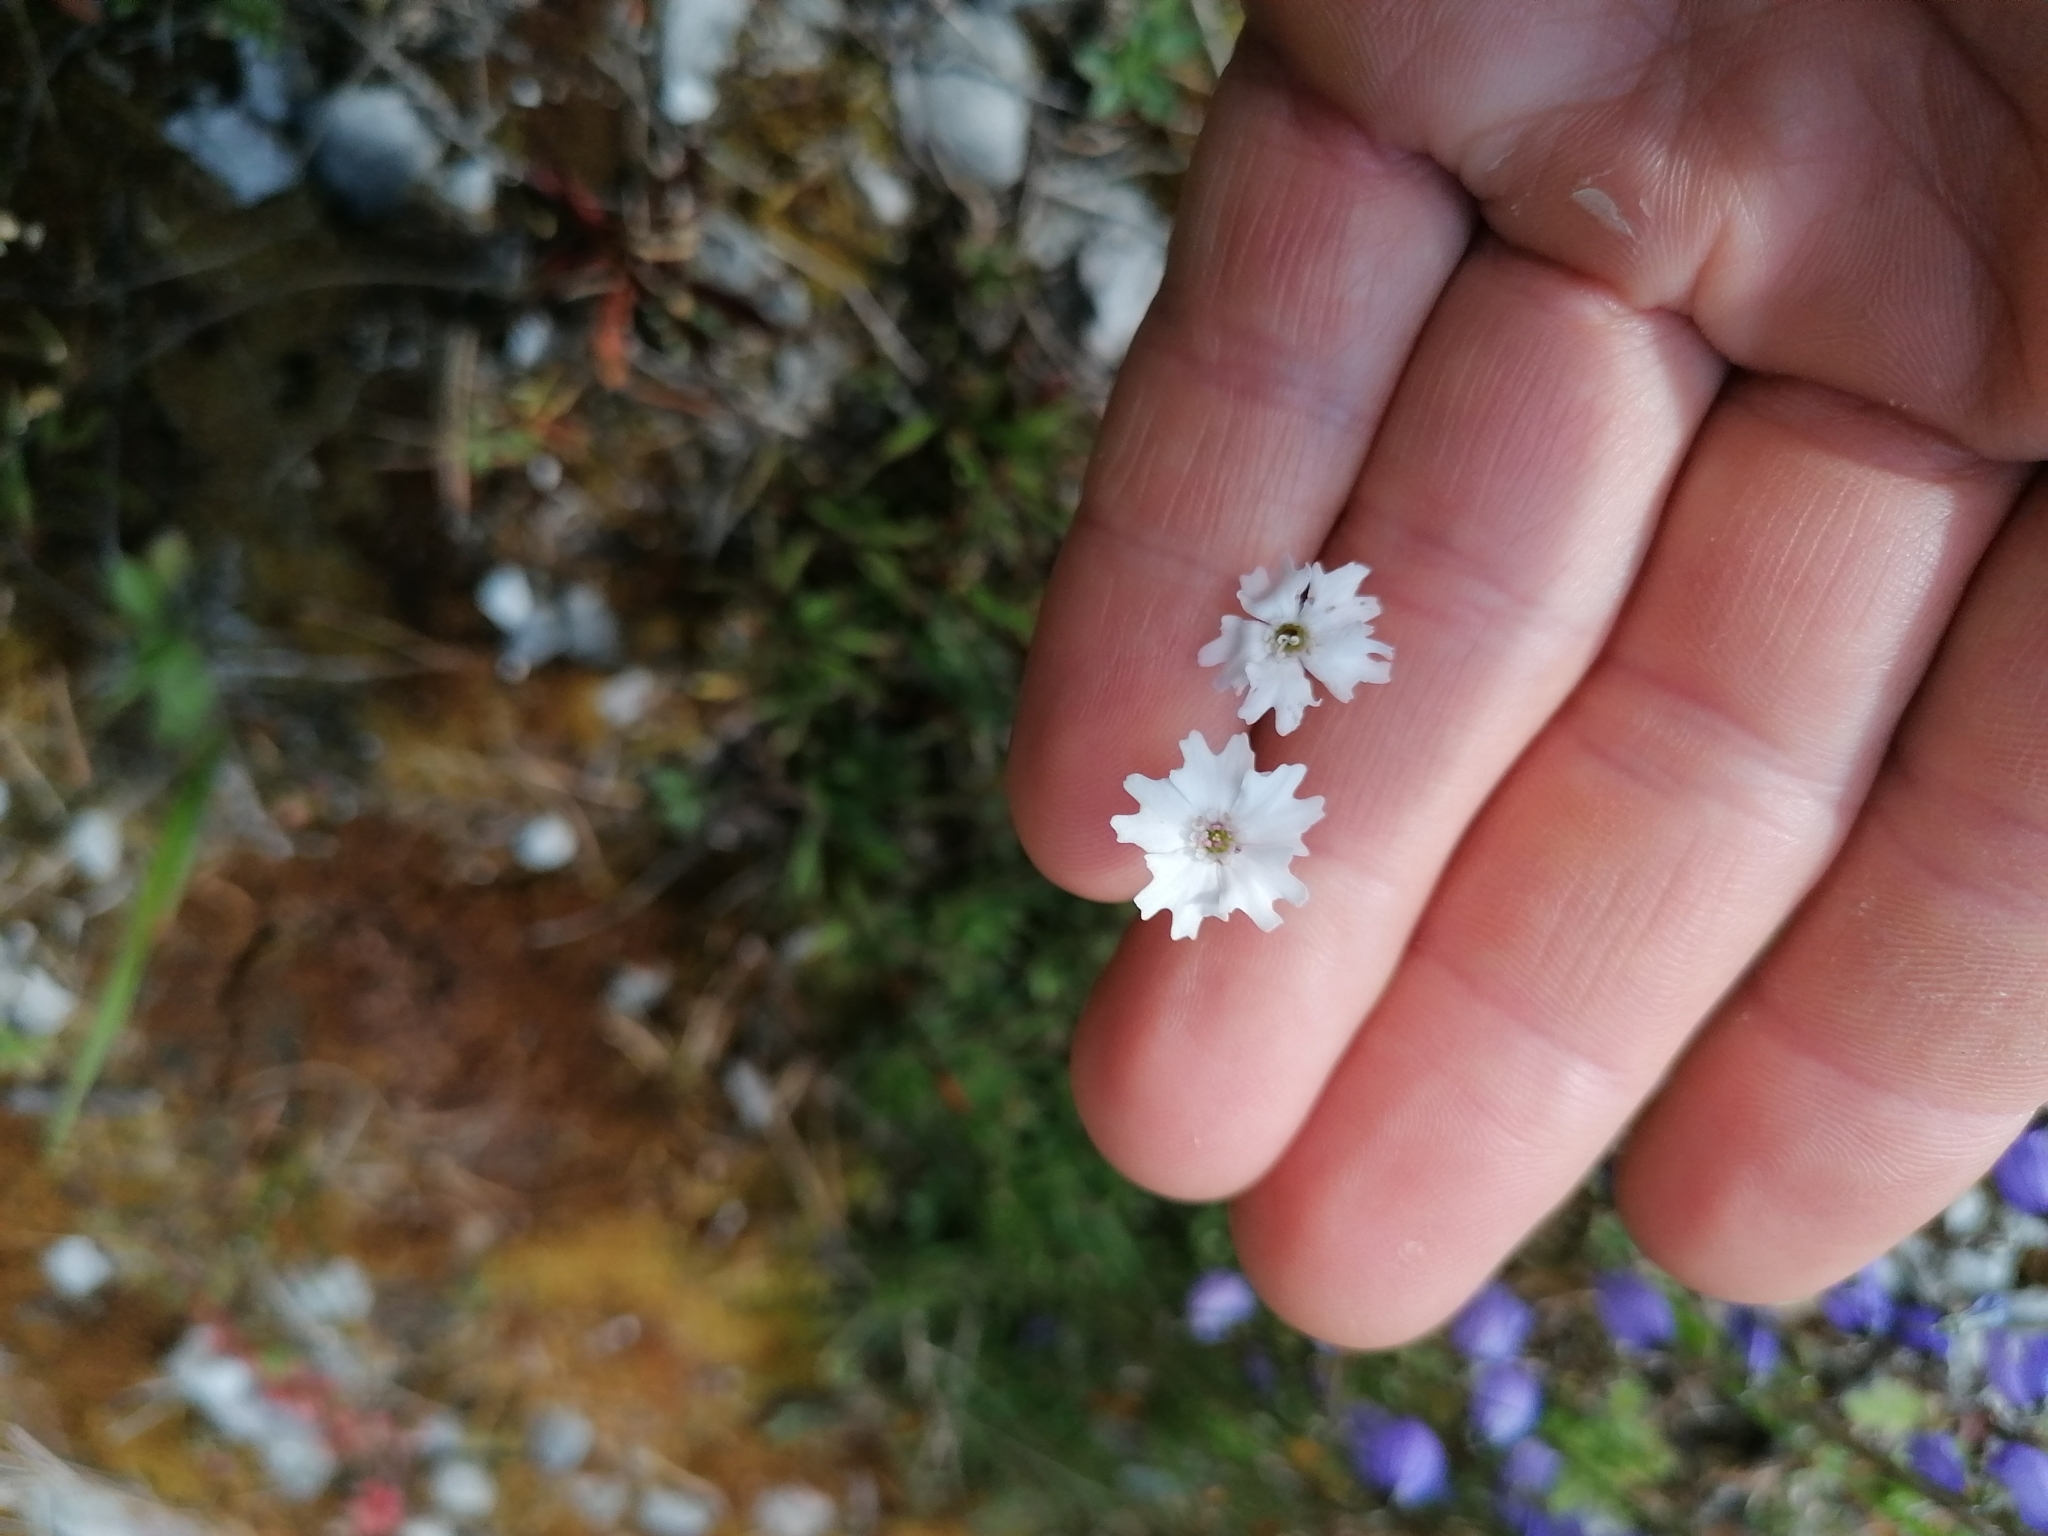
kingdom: Plantae
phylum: Tracheophyta
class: Magnoliopsida
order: Caryophyllales
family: Caryophyllaceae
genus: Heliosperma
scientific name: Heliosperma alpestre
